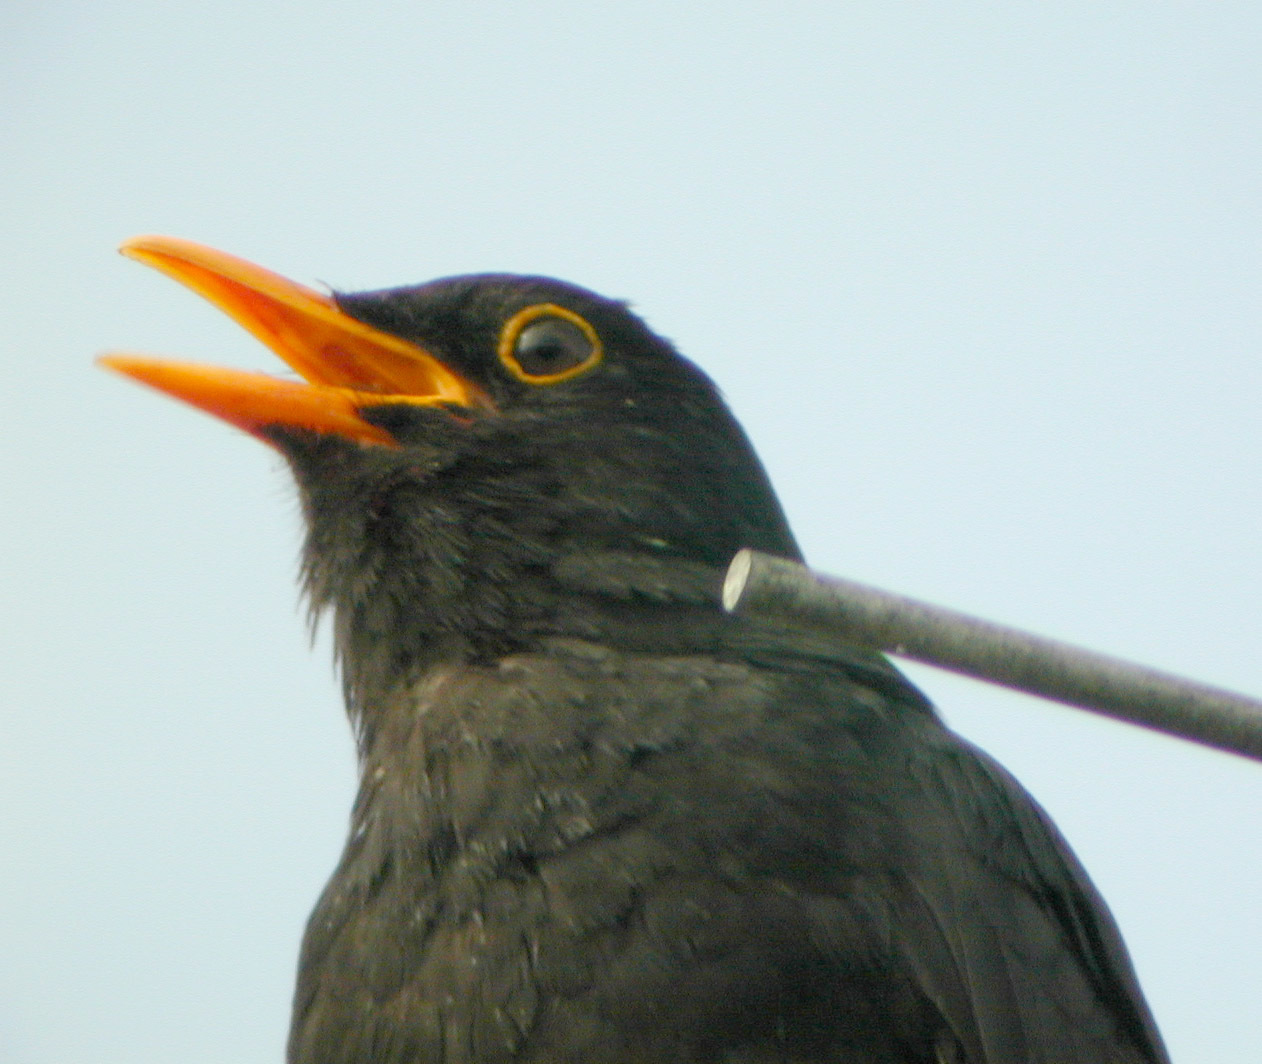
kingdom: Animalia
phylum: Chordata
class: Aves
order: Passeriformes
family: Turdidae
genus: Turdus
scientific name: Turdus merula
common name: Common blackbird
